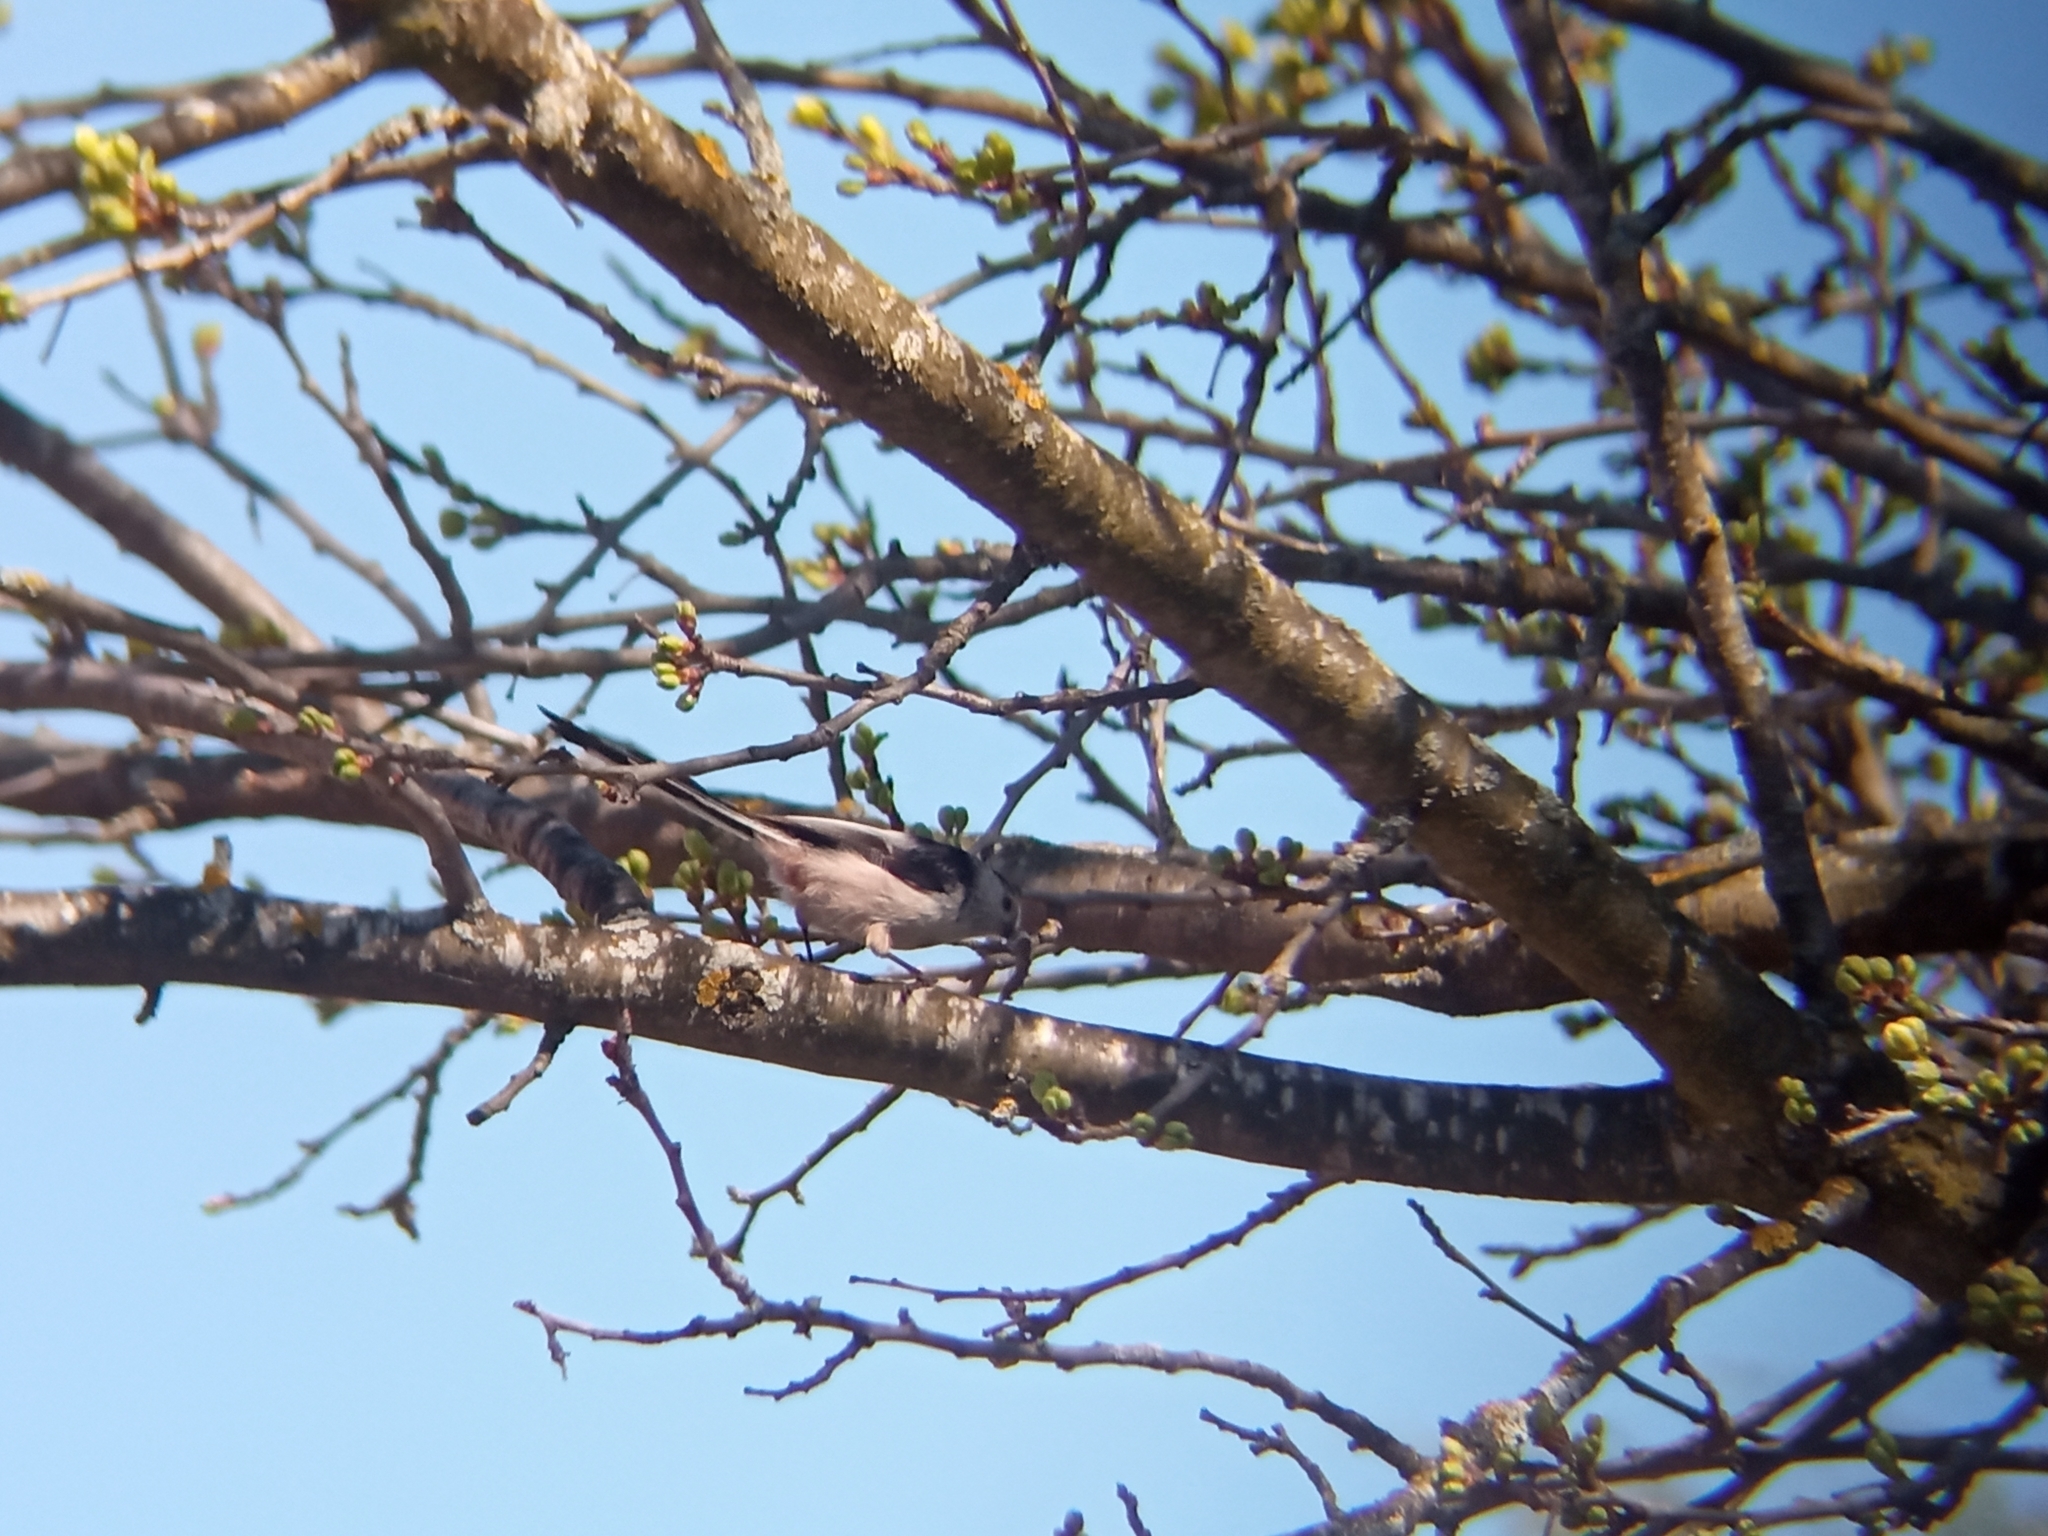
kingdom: Animalia
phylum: Chordata
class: Aves
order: Passeriformes
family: Aegithalidae
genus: Aegithalos
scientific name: Aegithalos caudatus
